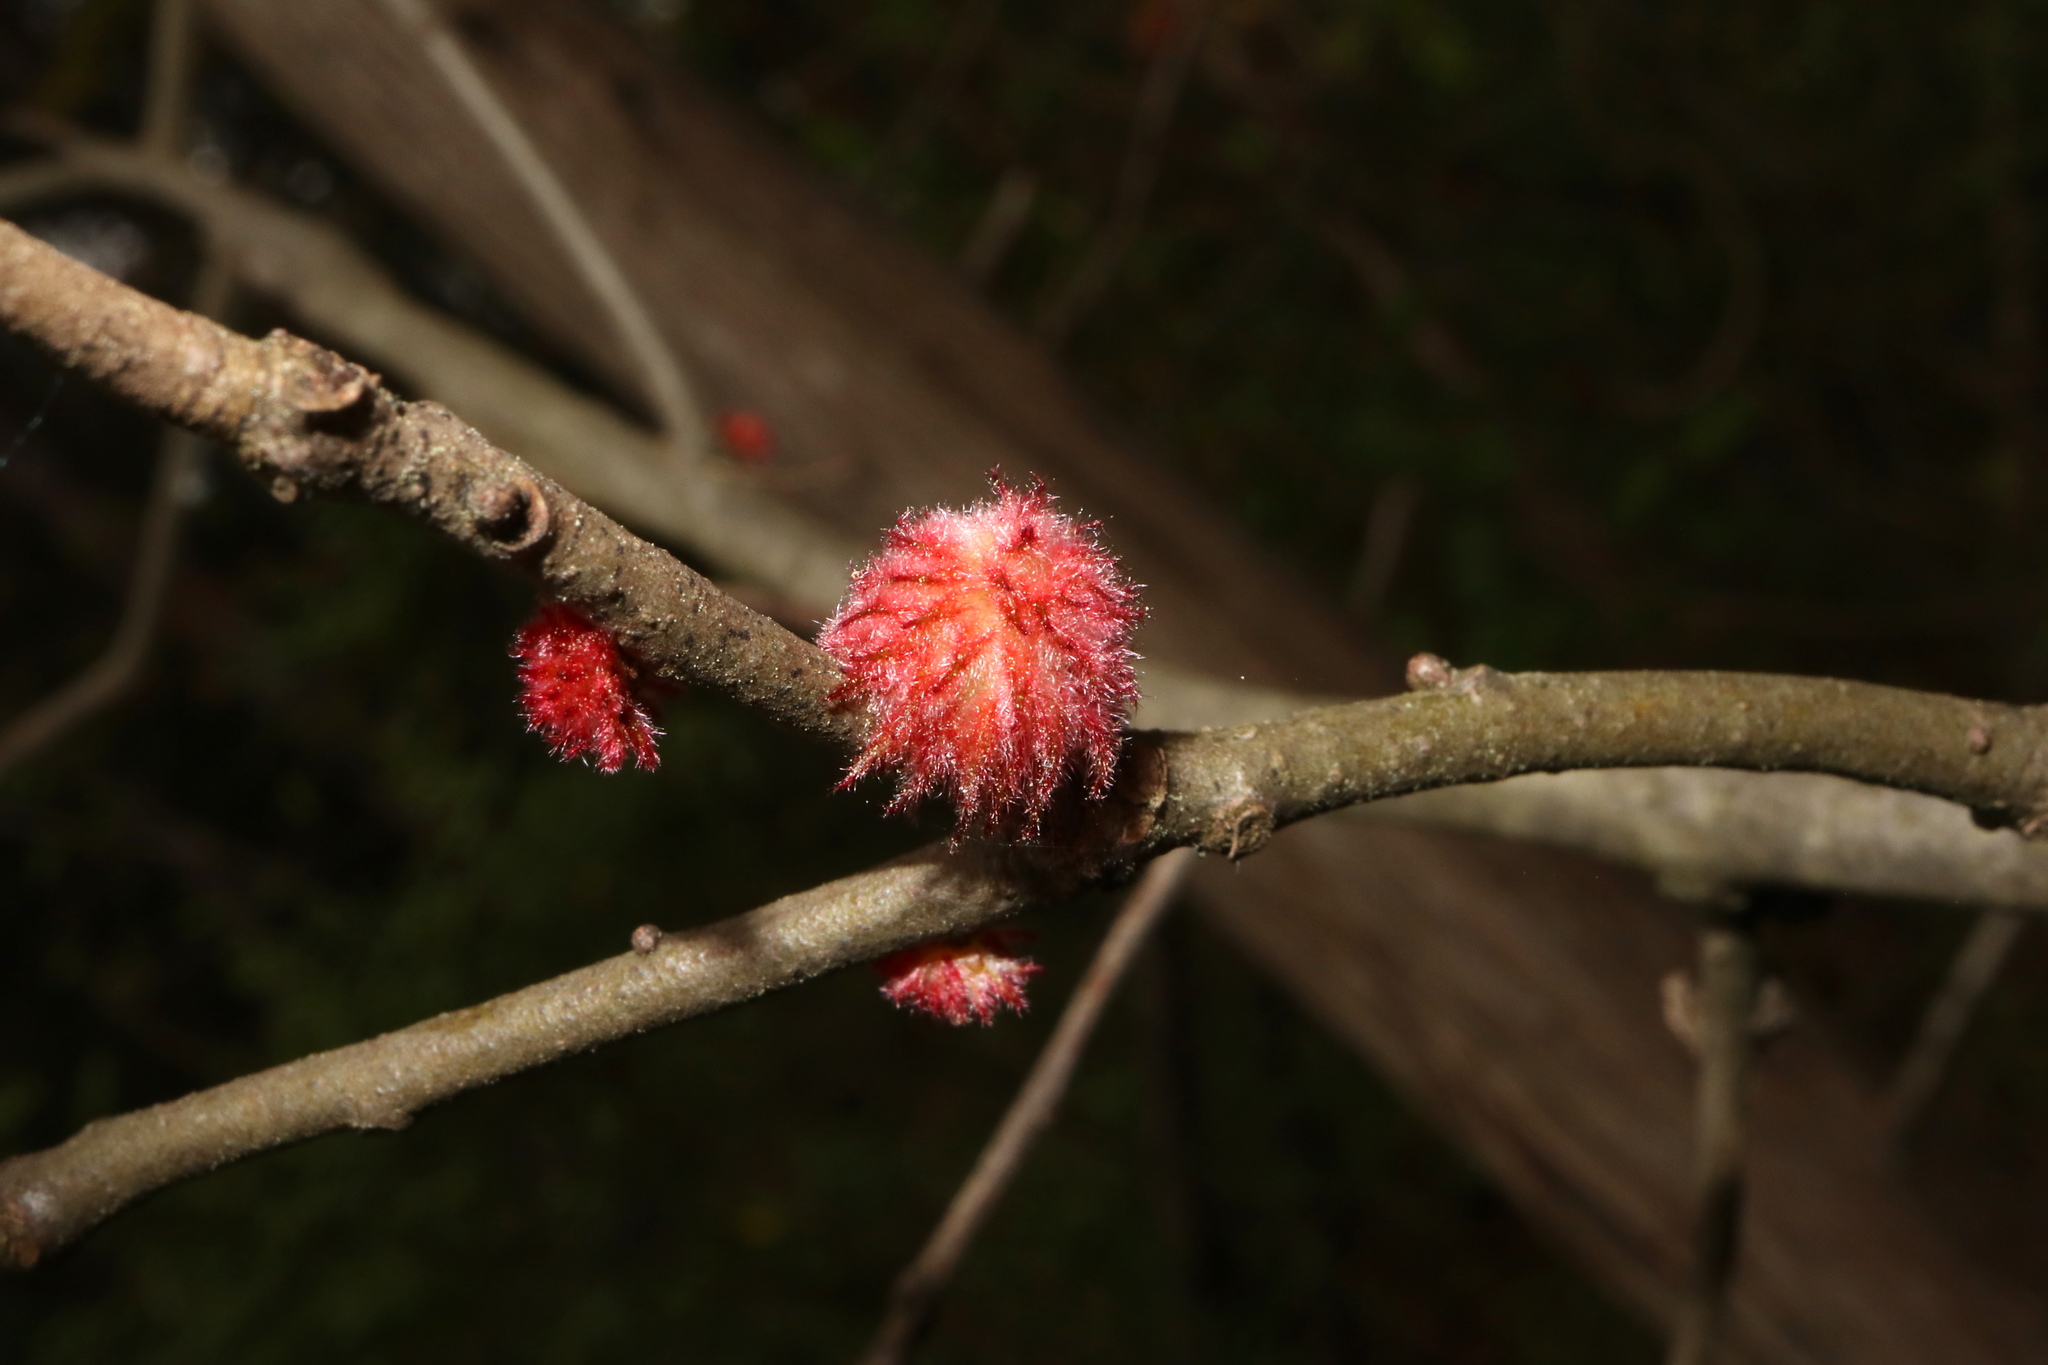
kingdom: Animalia
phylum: Arthropoda
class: Insecta
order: Hymenoptera
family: Cynipidae
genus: Dryocosmus
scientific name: Dryocosmus
